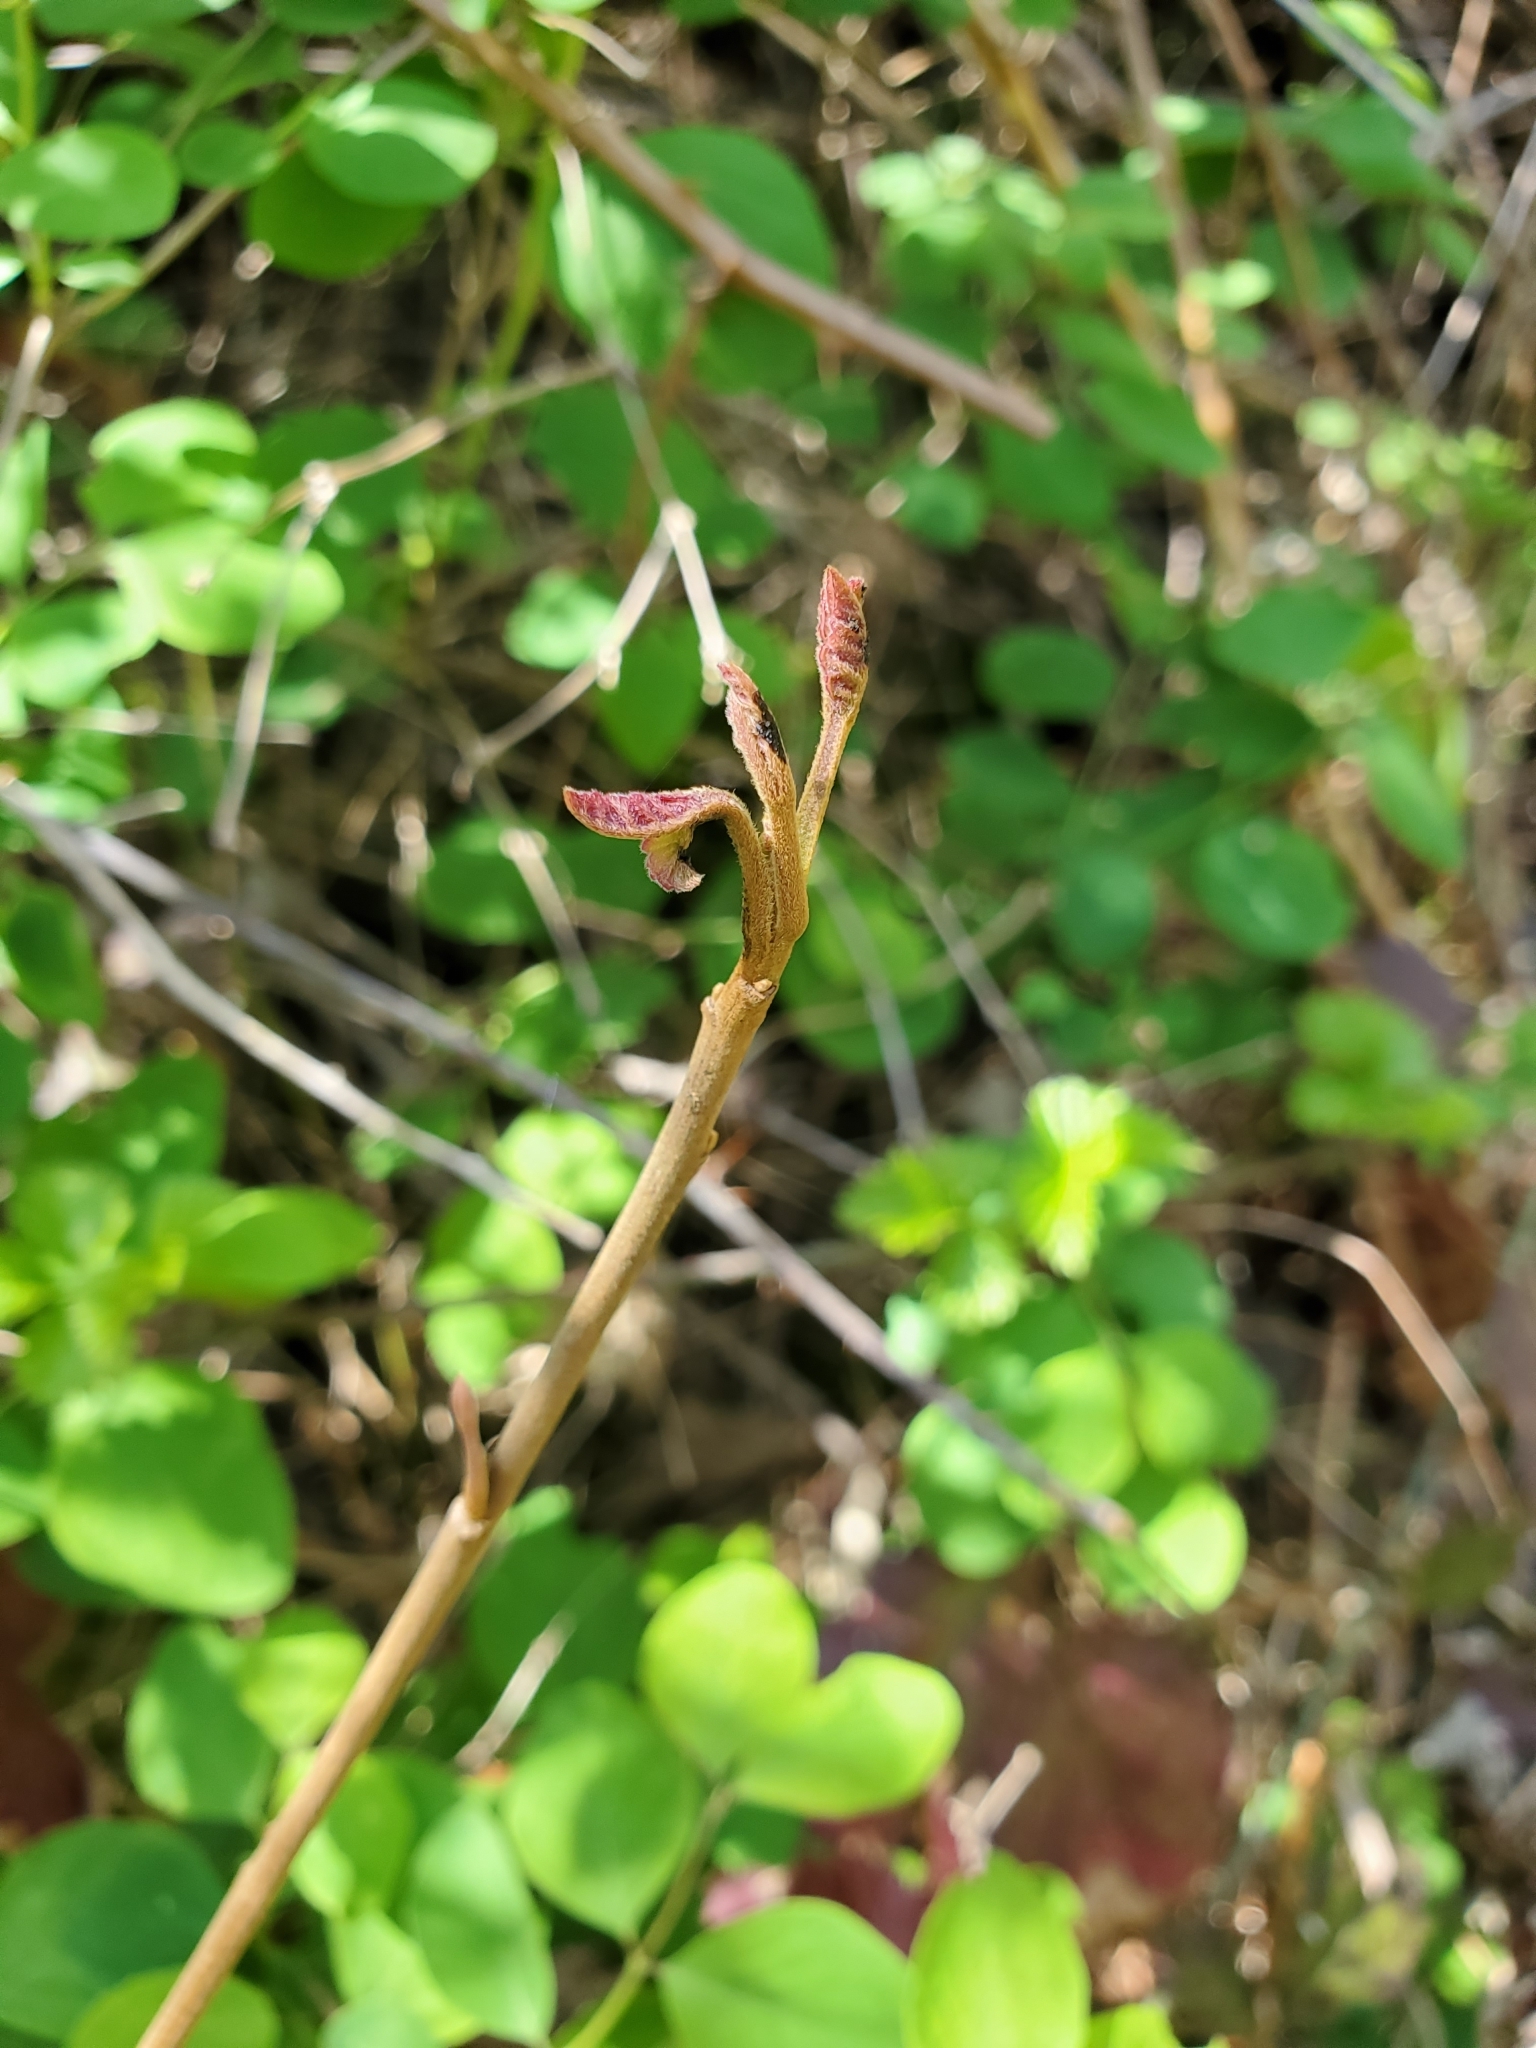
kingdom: Plantae
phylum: Tracheophyta
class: Magnoliopsida
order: Sapindales
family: Anacardiaceae
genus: Toxicodendron
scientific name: Toxicodendron diversilobum
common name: Pacific poison-oak
